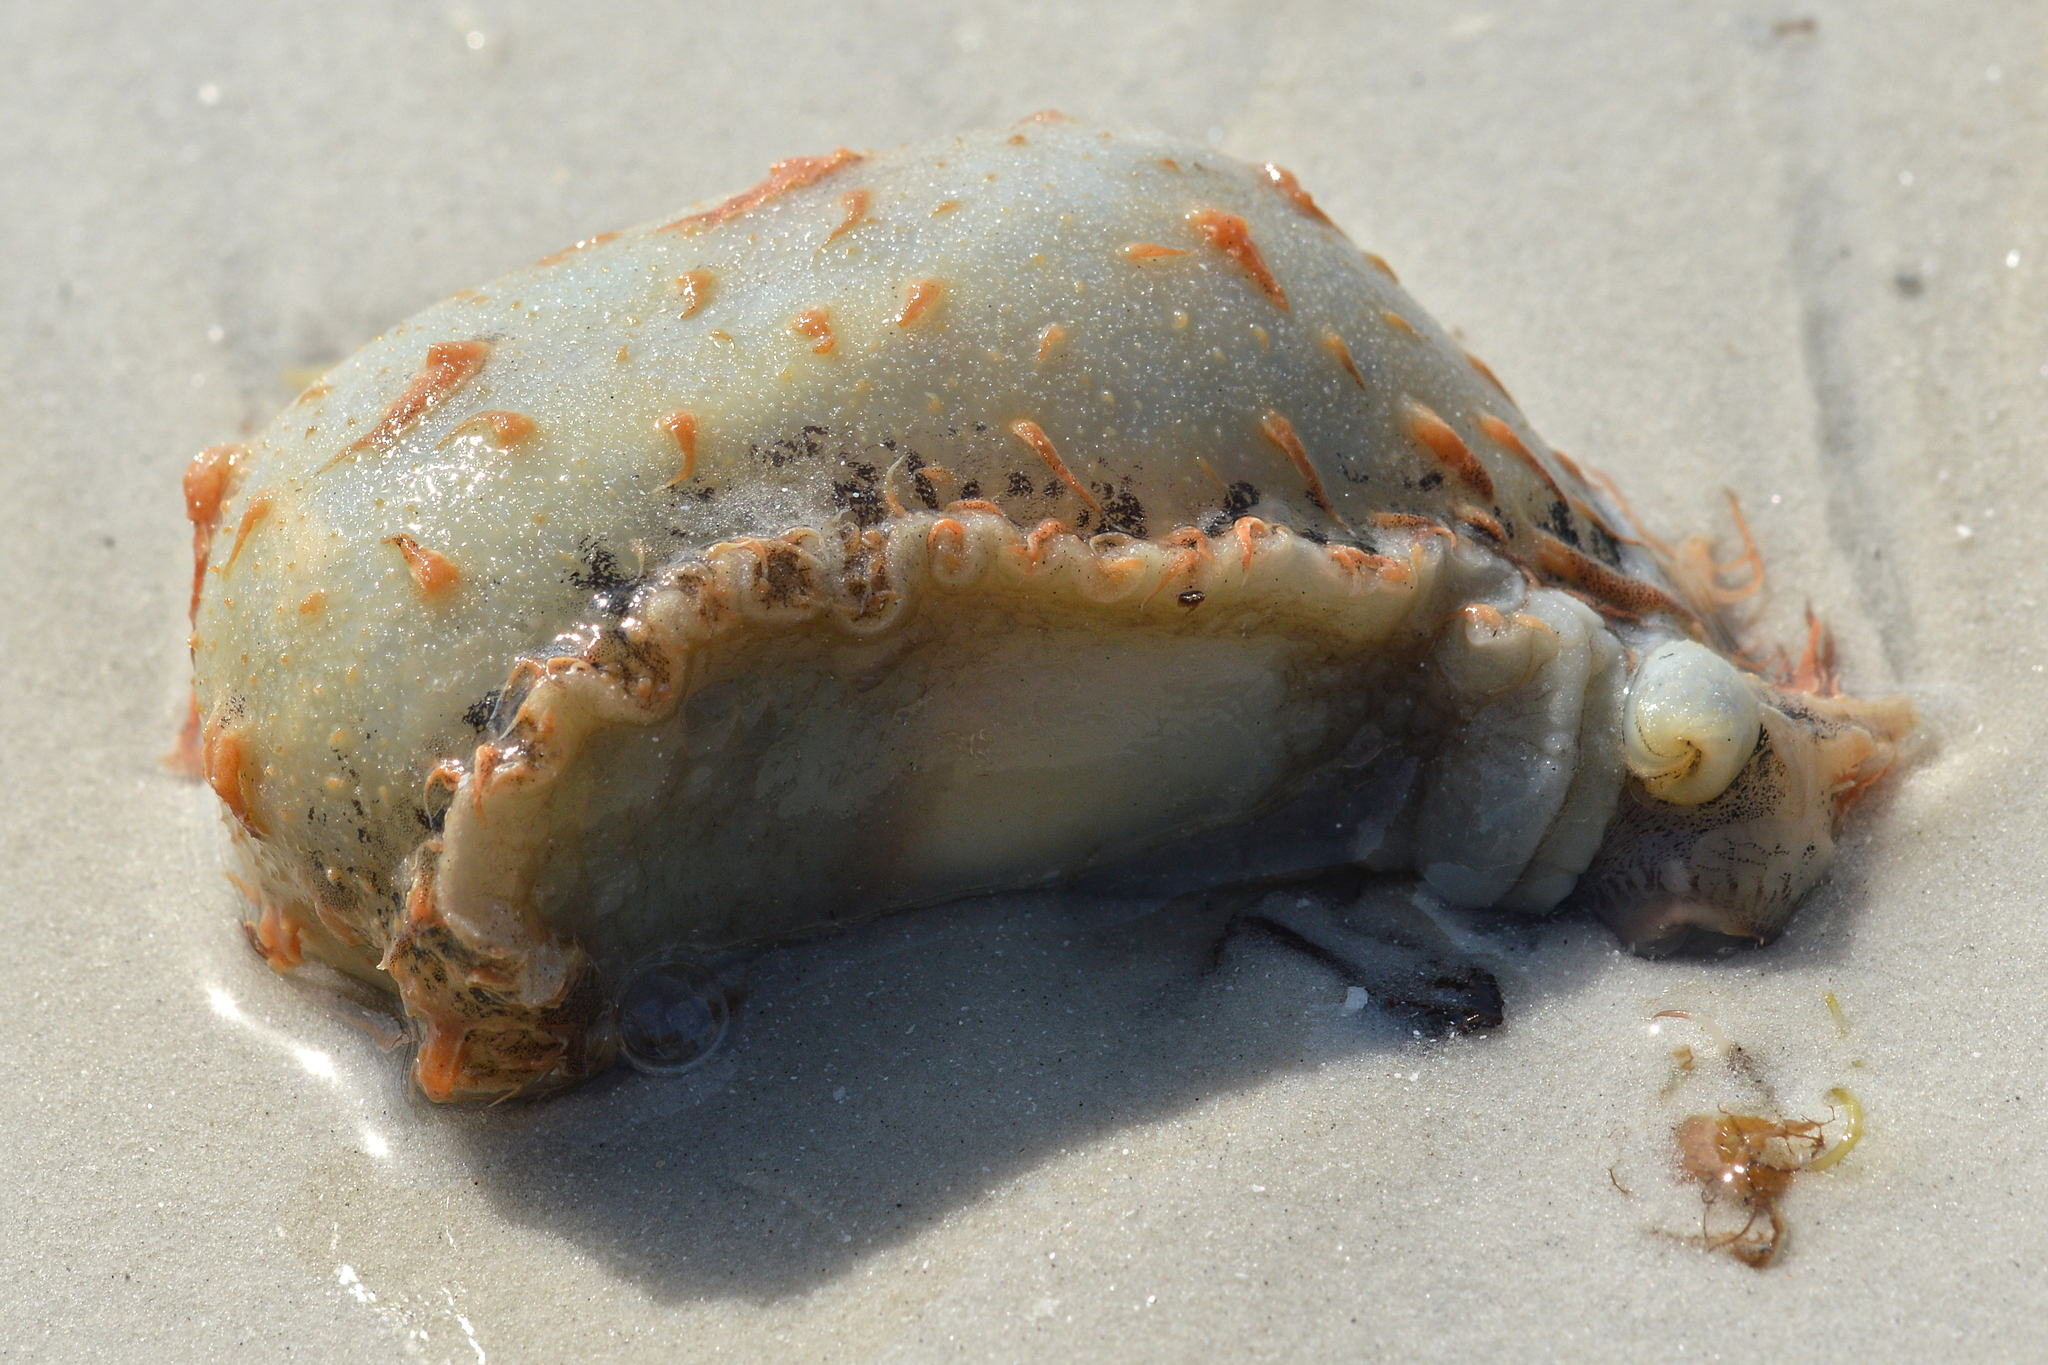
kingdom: Animalia
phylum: Mollusca
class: Gastropoda
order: Aplysiida
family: Aplysiidae
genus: Bursatella
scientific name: Bursatella leachii
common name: Shaggy sea hare
